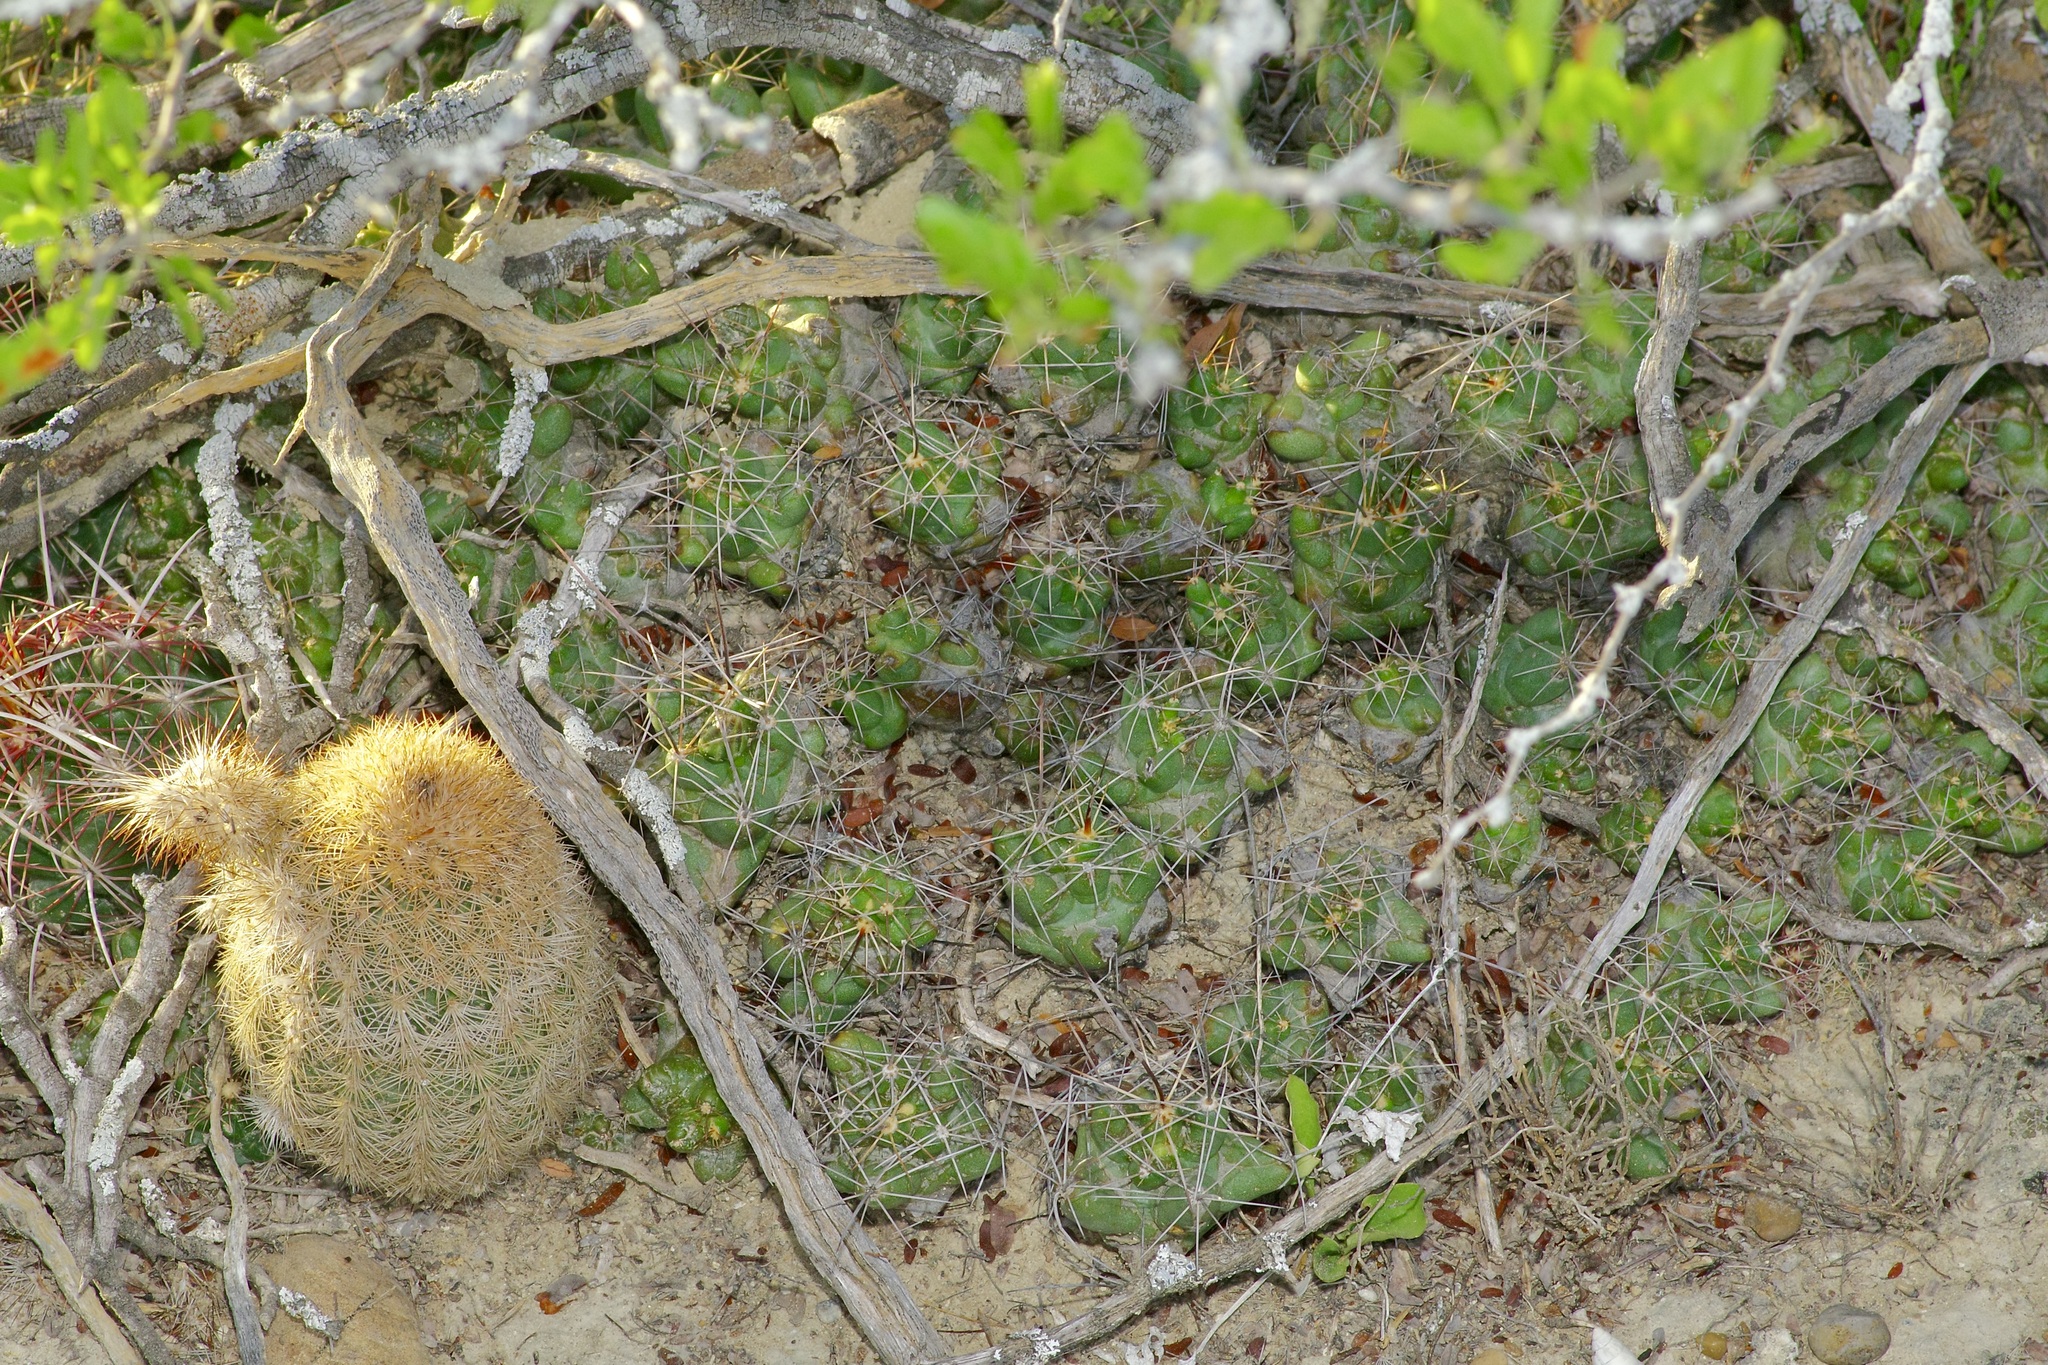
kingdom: Plantae
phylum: Tracheophyta
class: Magnoliopsida
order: Caryophyllales
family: Cactaceae
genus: Echinocereus
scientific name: Echinocereus reichenbachii
